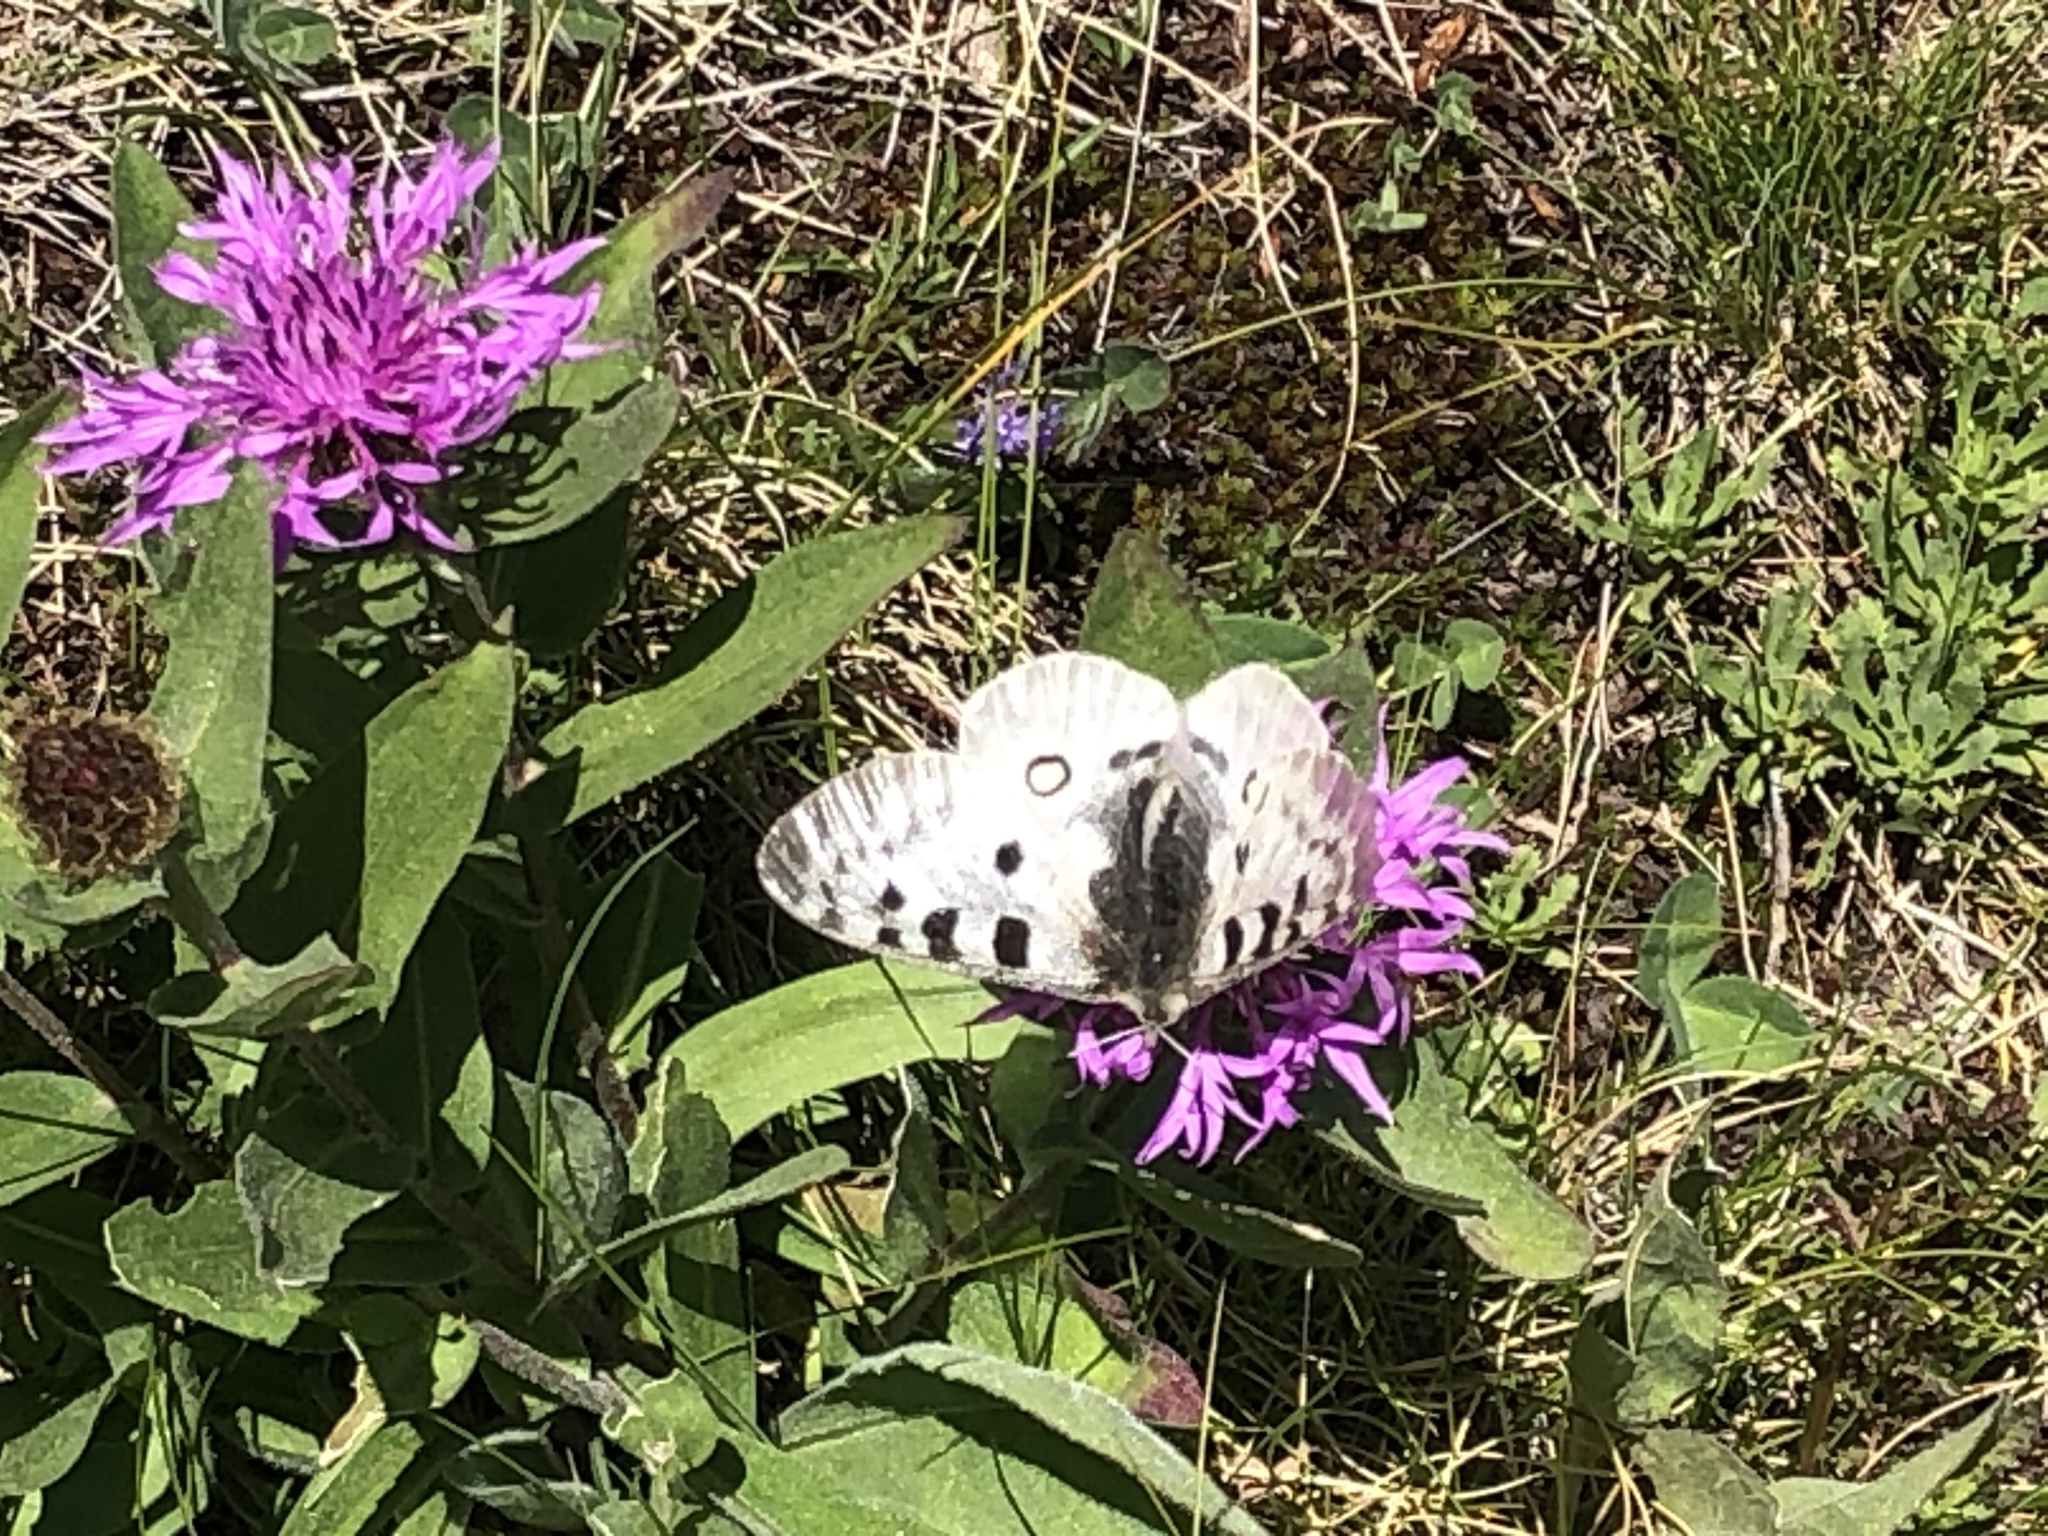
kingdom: Animalia
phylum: Arthropoda
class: Insecta
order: Lepidoptera
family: Papilionidae
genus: Parnassius
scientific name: Parnassius apollo
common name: Apollo
